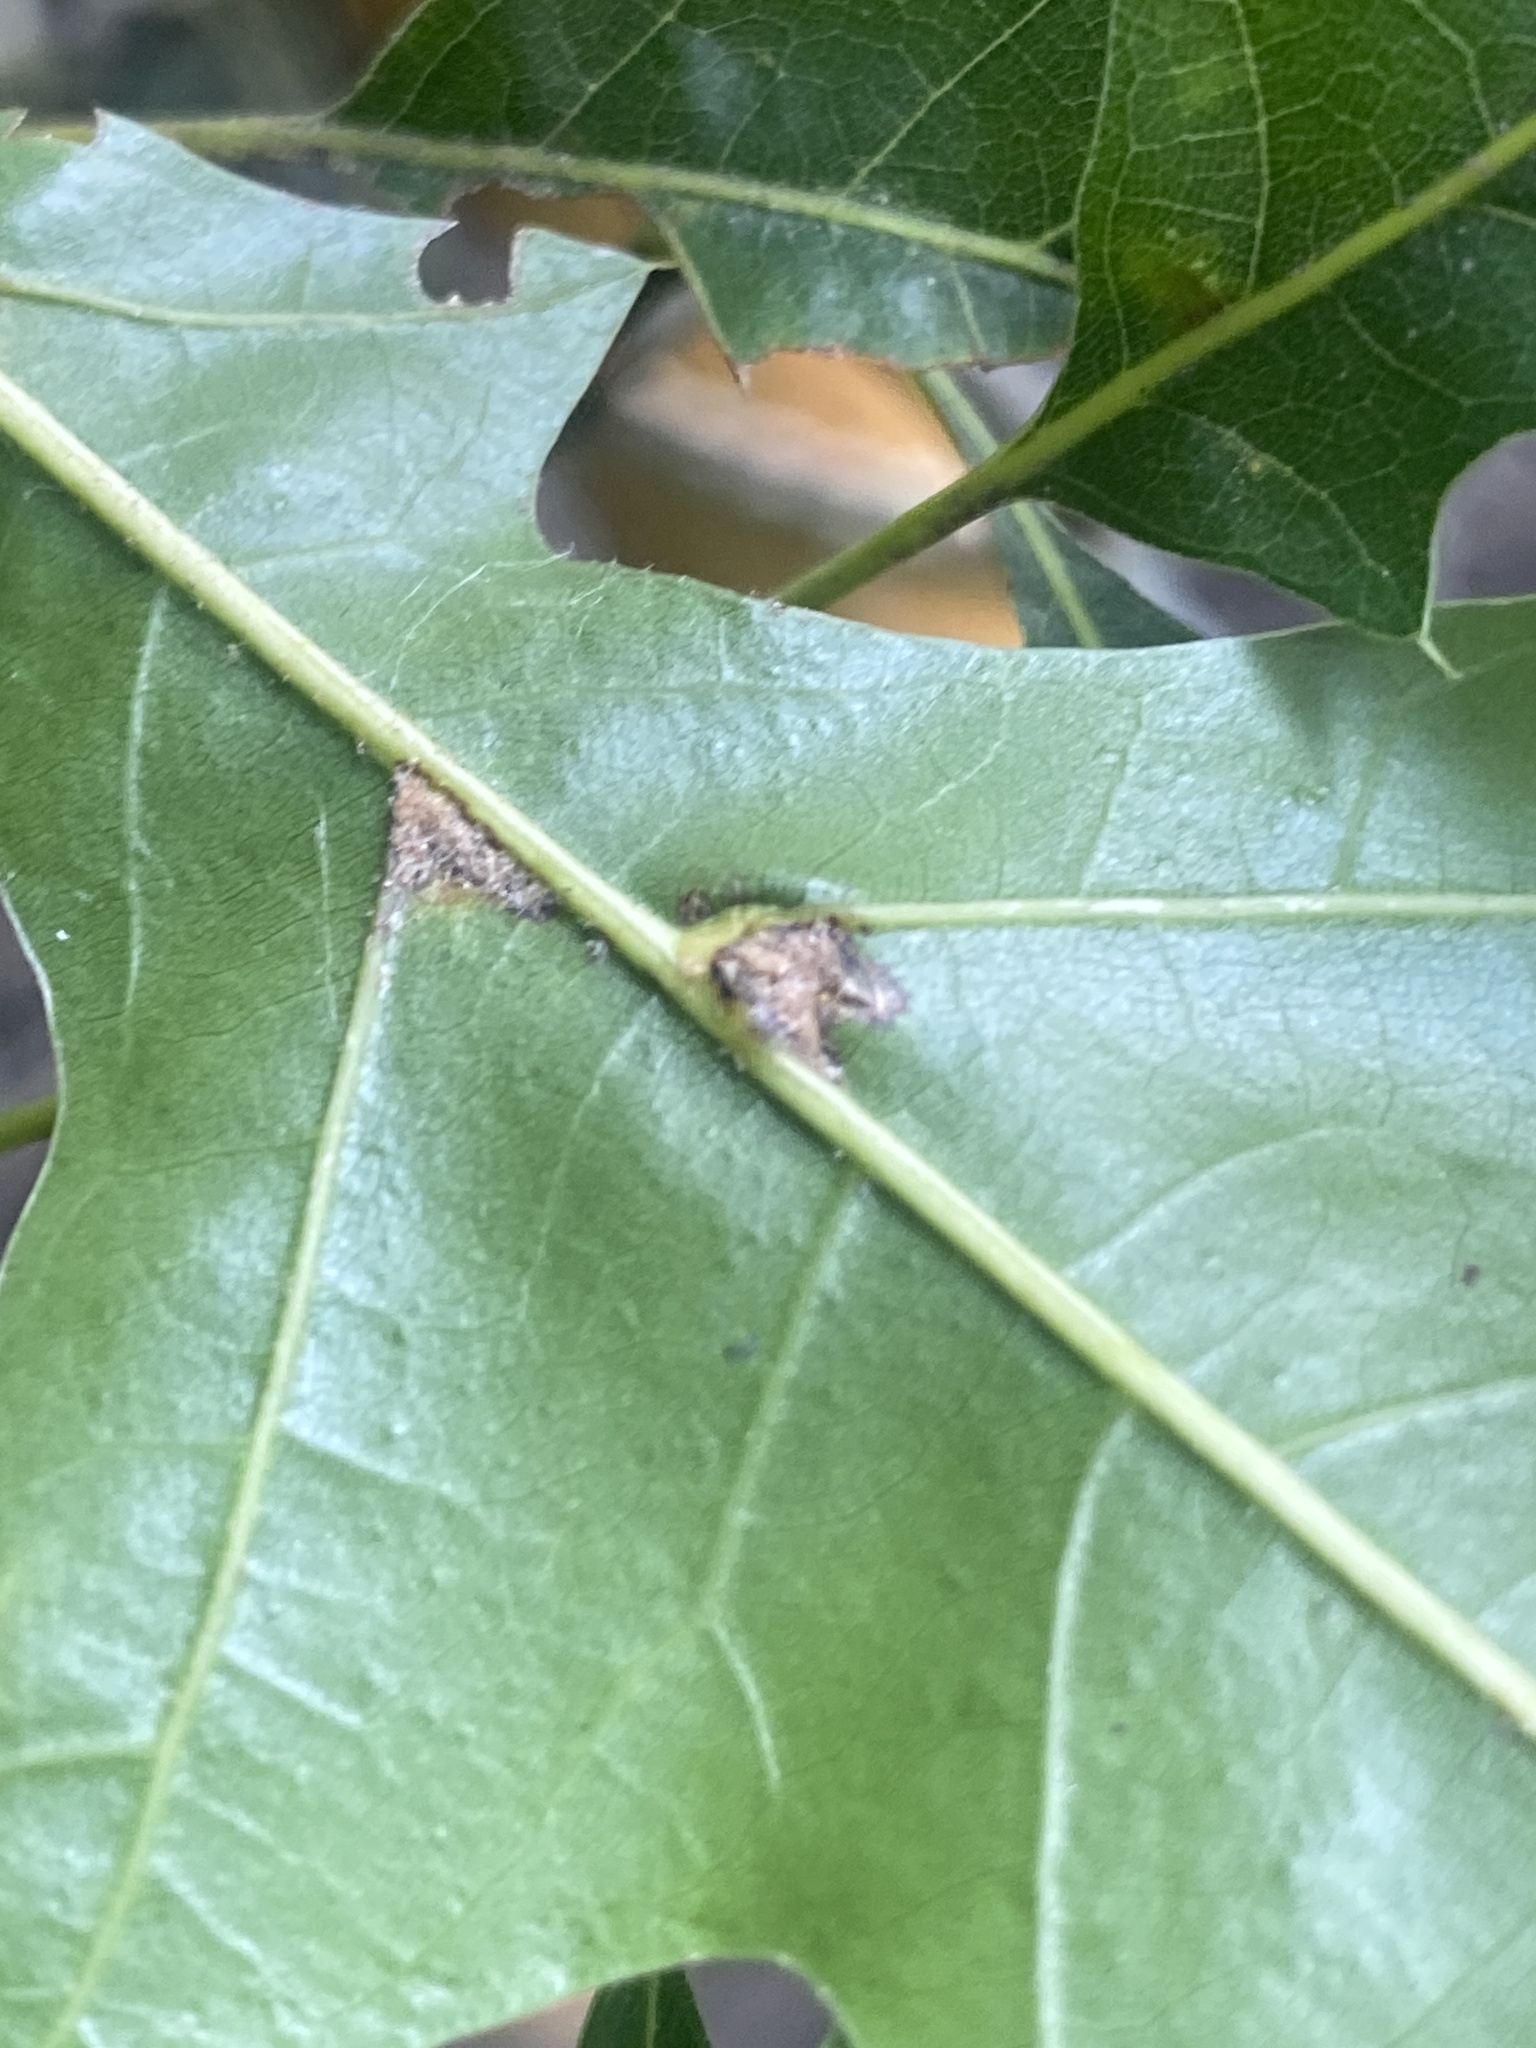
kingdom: Animalia
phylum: Arthropoda
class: Insecta
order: Diptera
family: Cecidomyiidae
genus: Polystepha
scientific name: Polystepha pilulae
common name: Oak leaf gall midge
